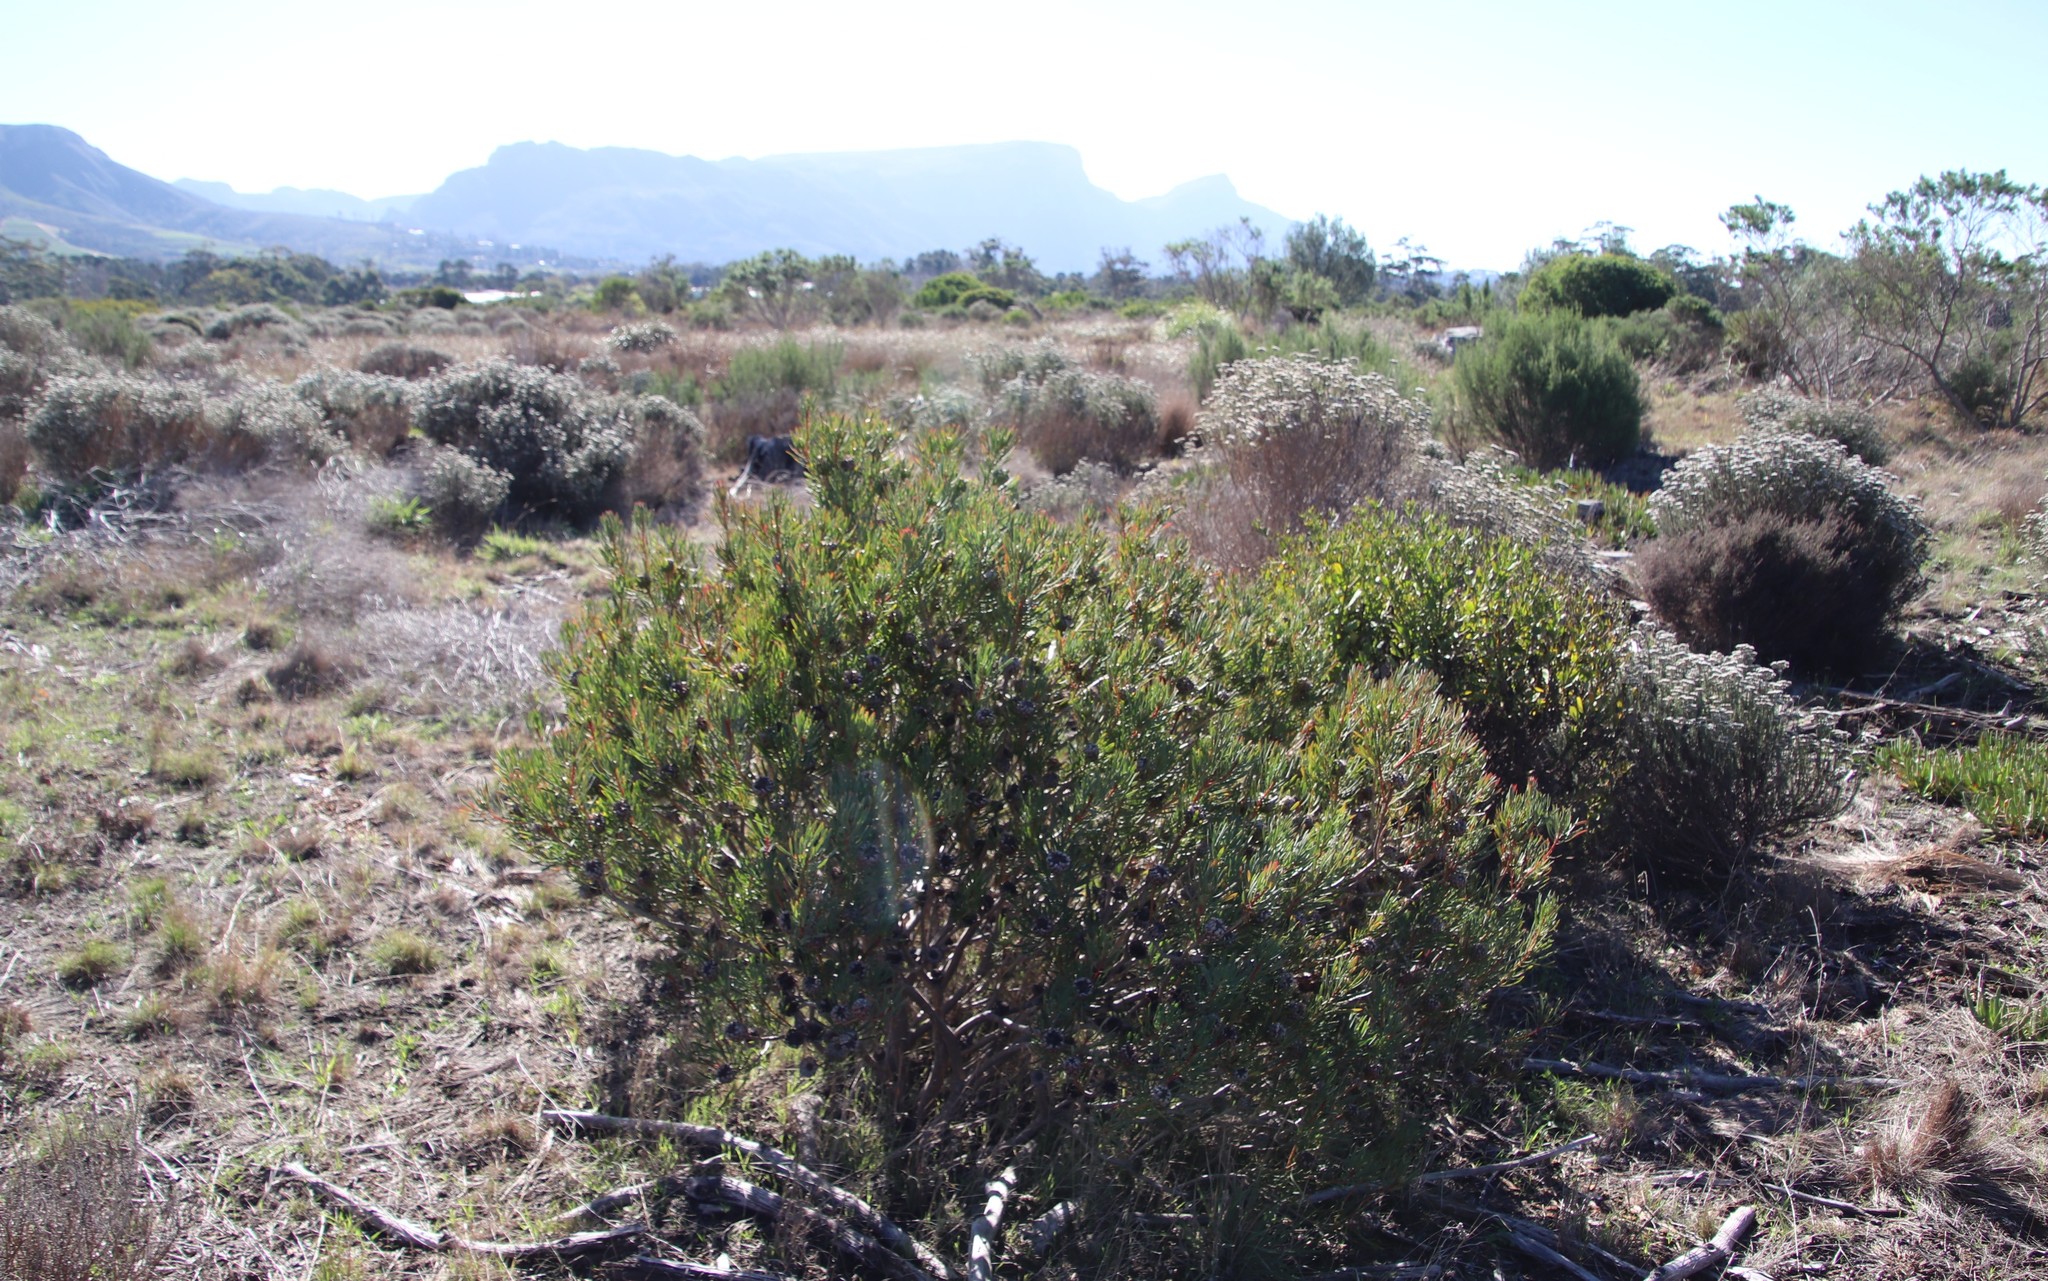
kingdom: Plantae
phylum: Tracheophyta
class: Magnoliopsida
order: Proteales
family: Proteaceae
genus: Protea
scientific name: Protea scolymocephala
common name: Thistle sugarbush
